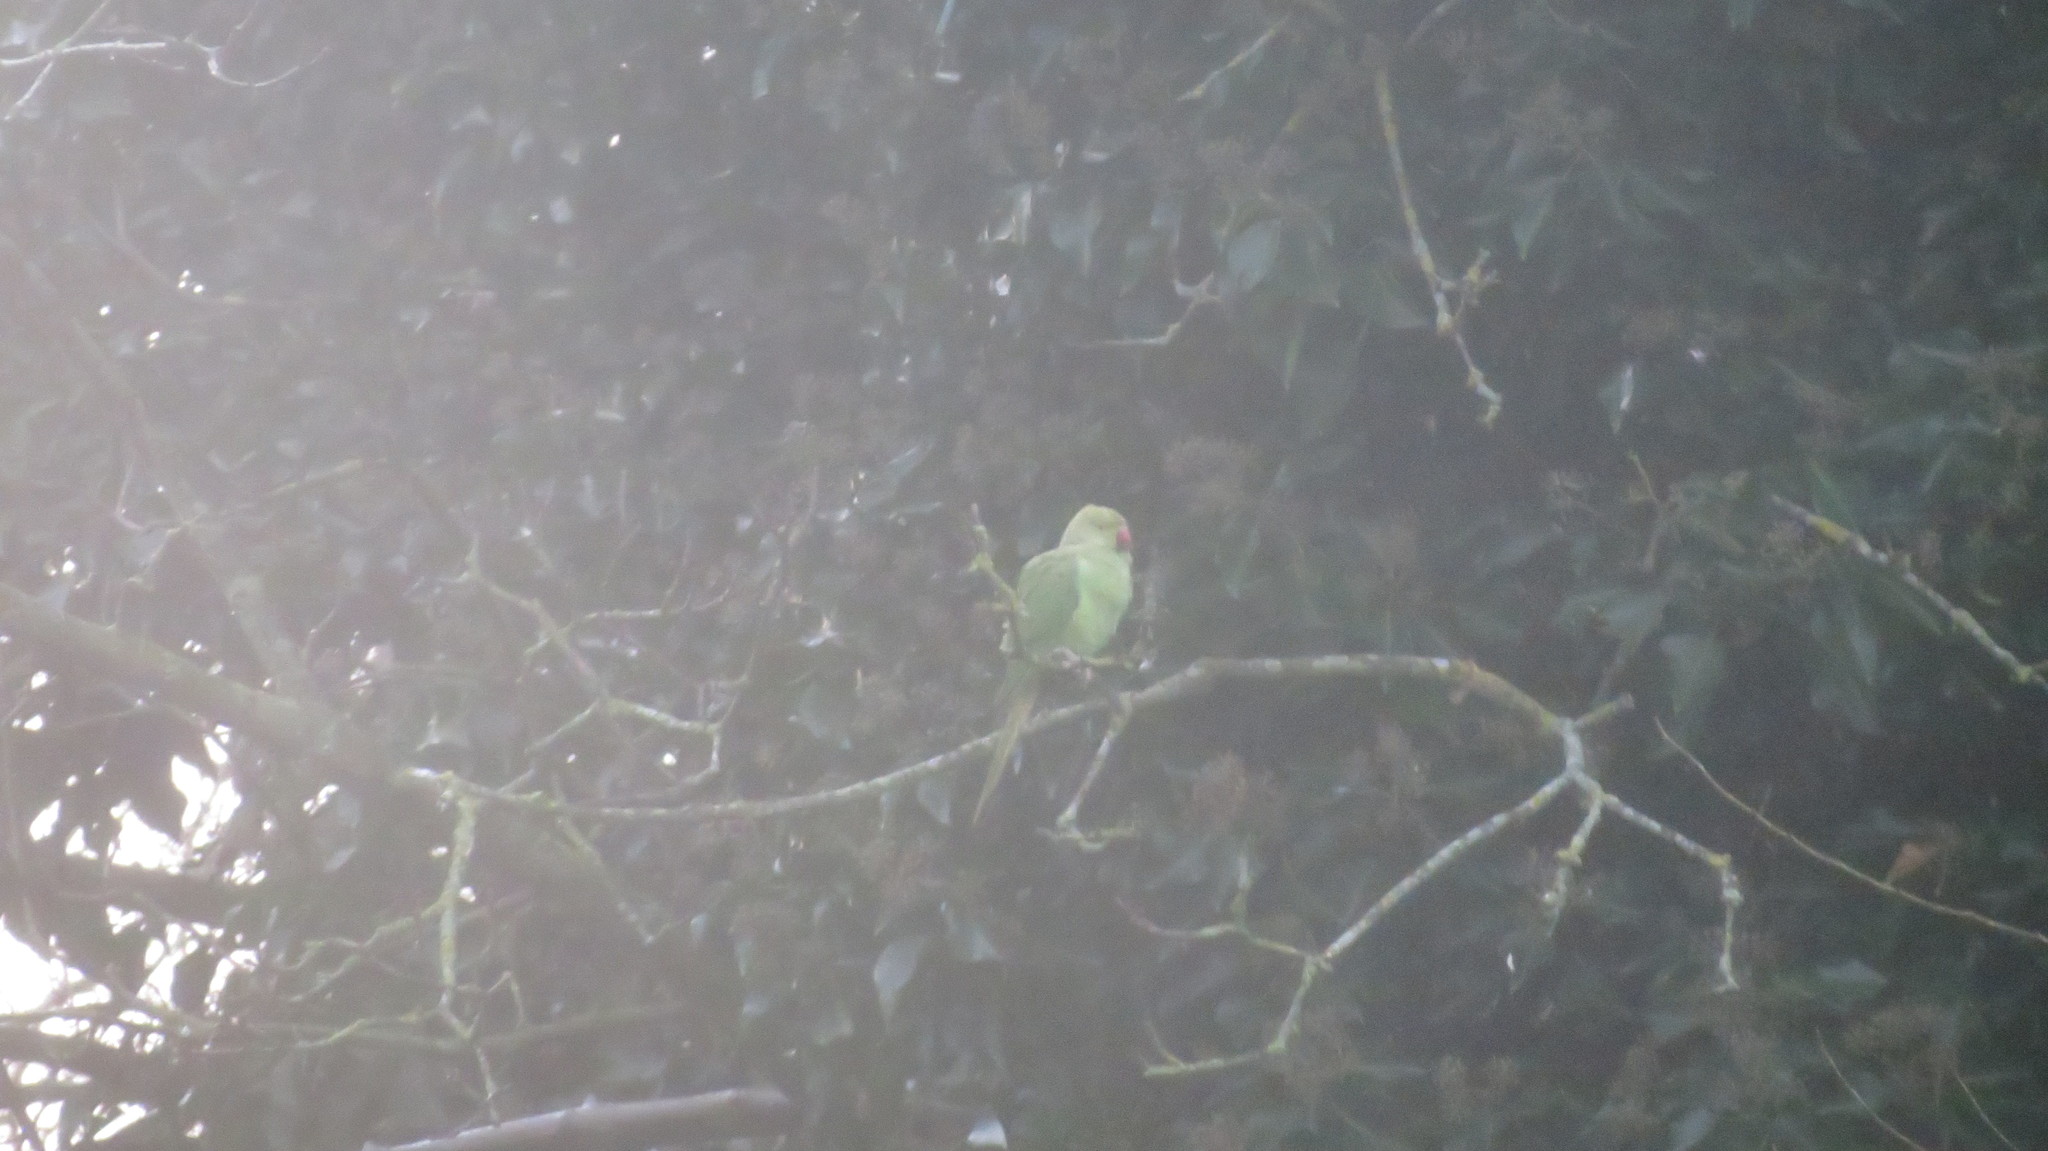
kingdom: Animalia
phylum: Chordata
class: Aves
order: Psittaciformes
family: Psittacidae
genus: Psittacula
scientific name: Psittacula krameri
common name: Rose-ringed parakeet
